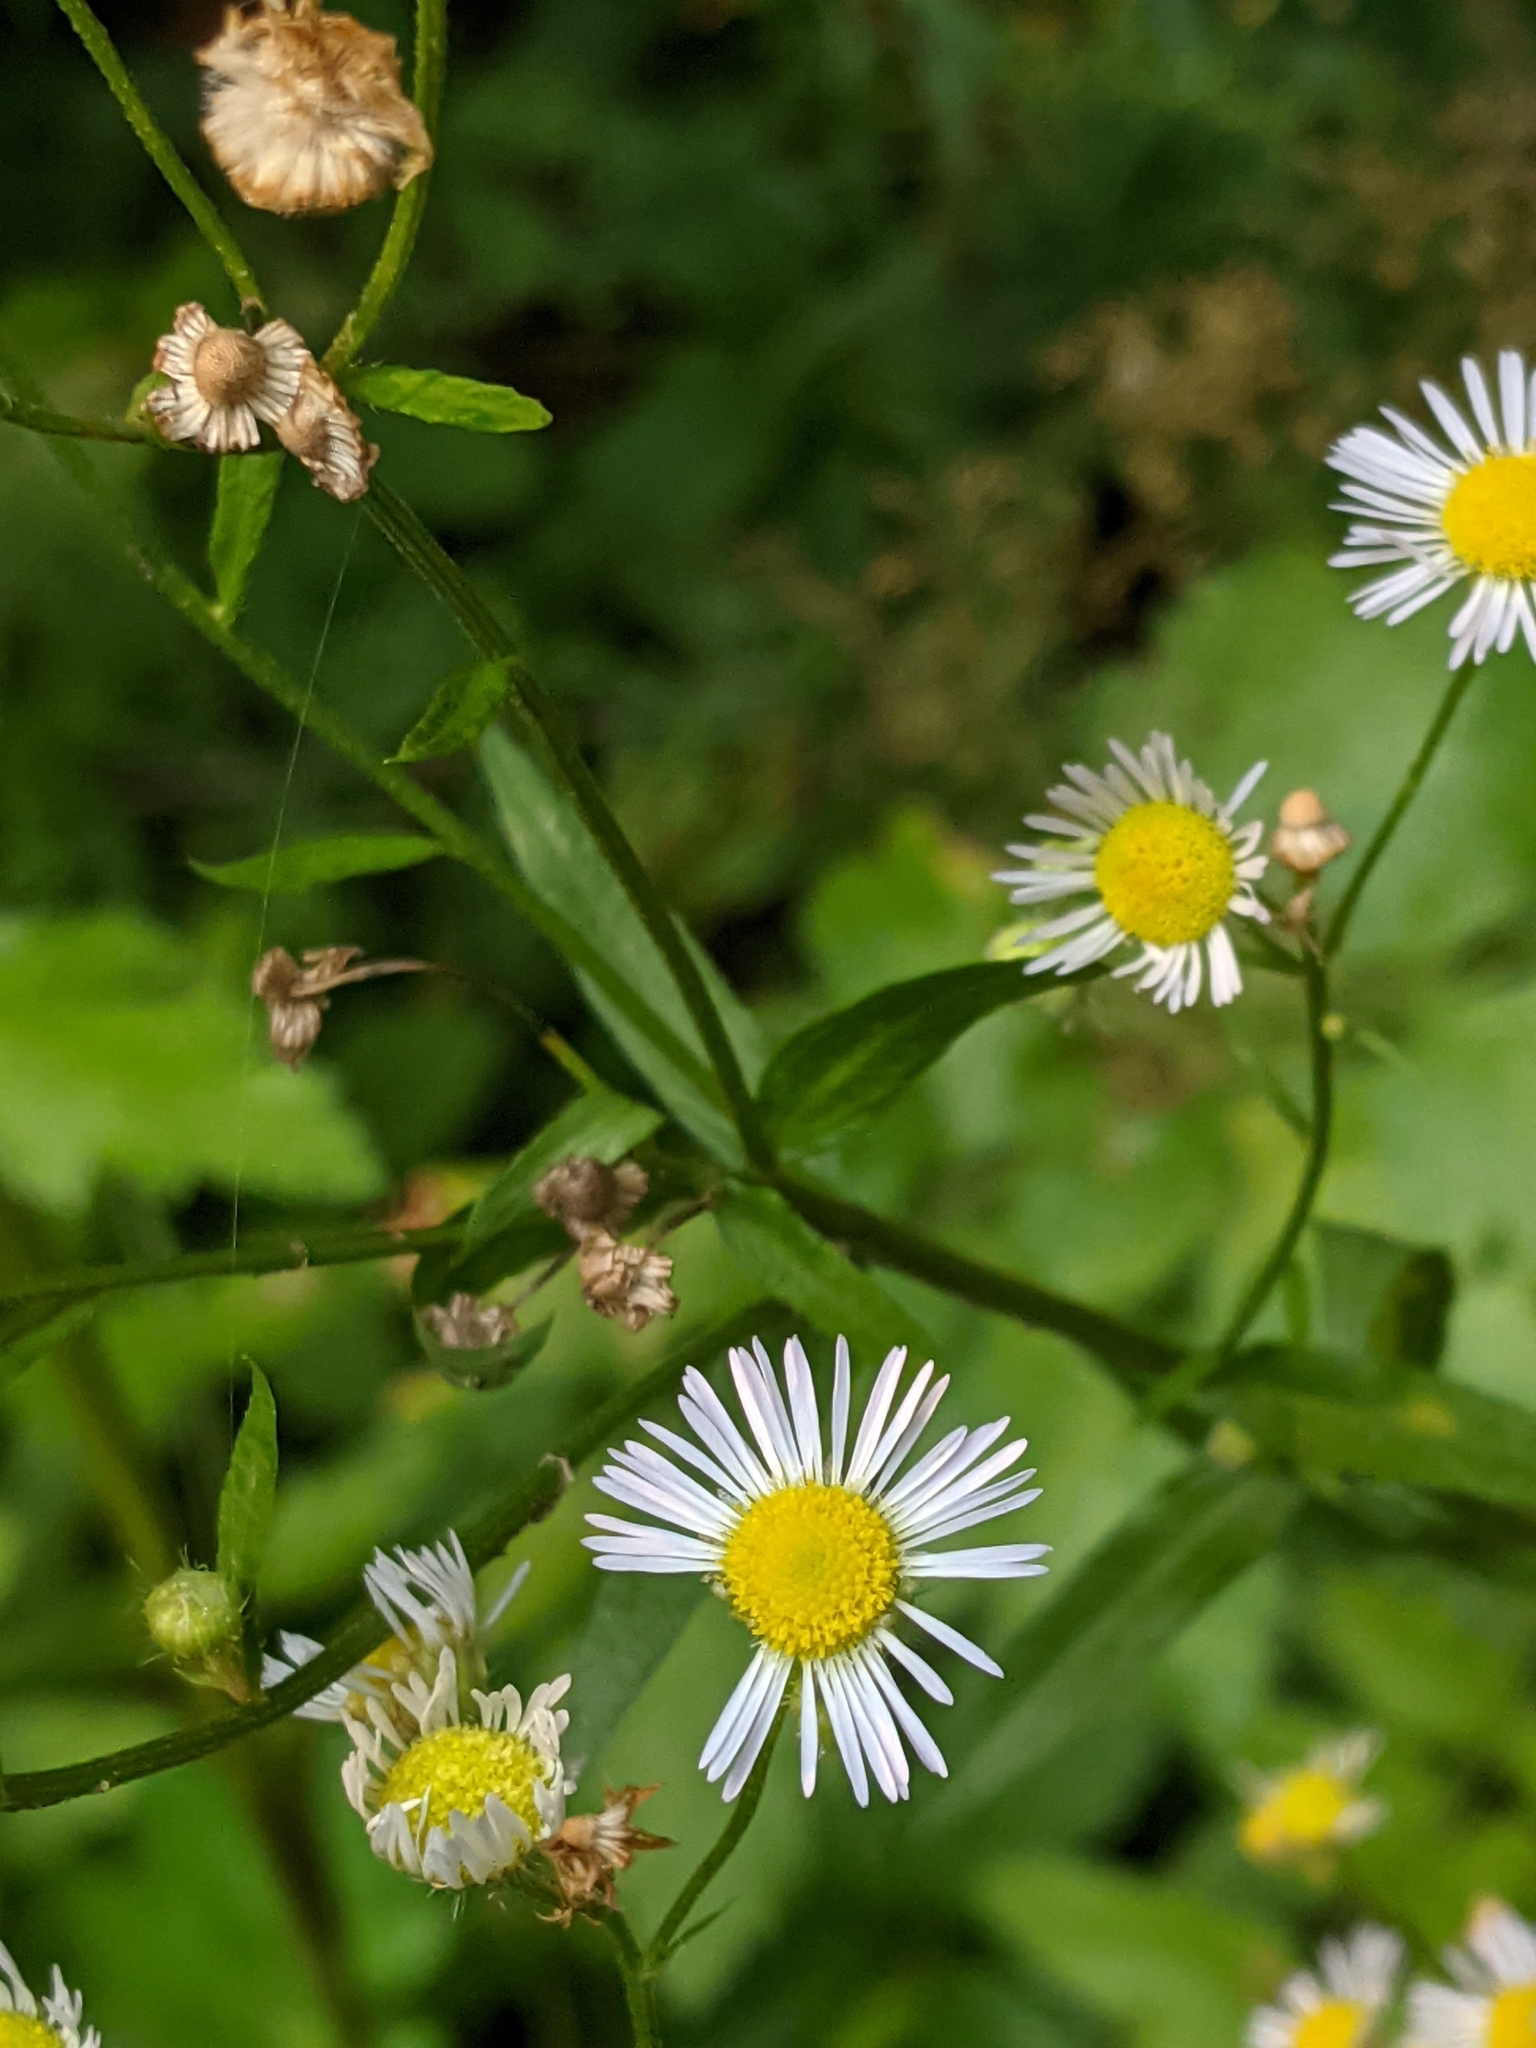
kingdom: Plantae
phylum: Tracheophyta
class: Magnoliopsida
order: Asterales
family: Asteraceae
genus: Erigeron
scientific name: Erigeron annuus
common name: Tall fleabane
